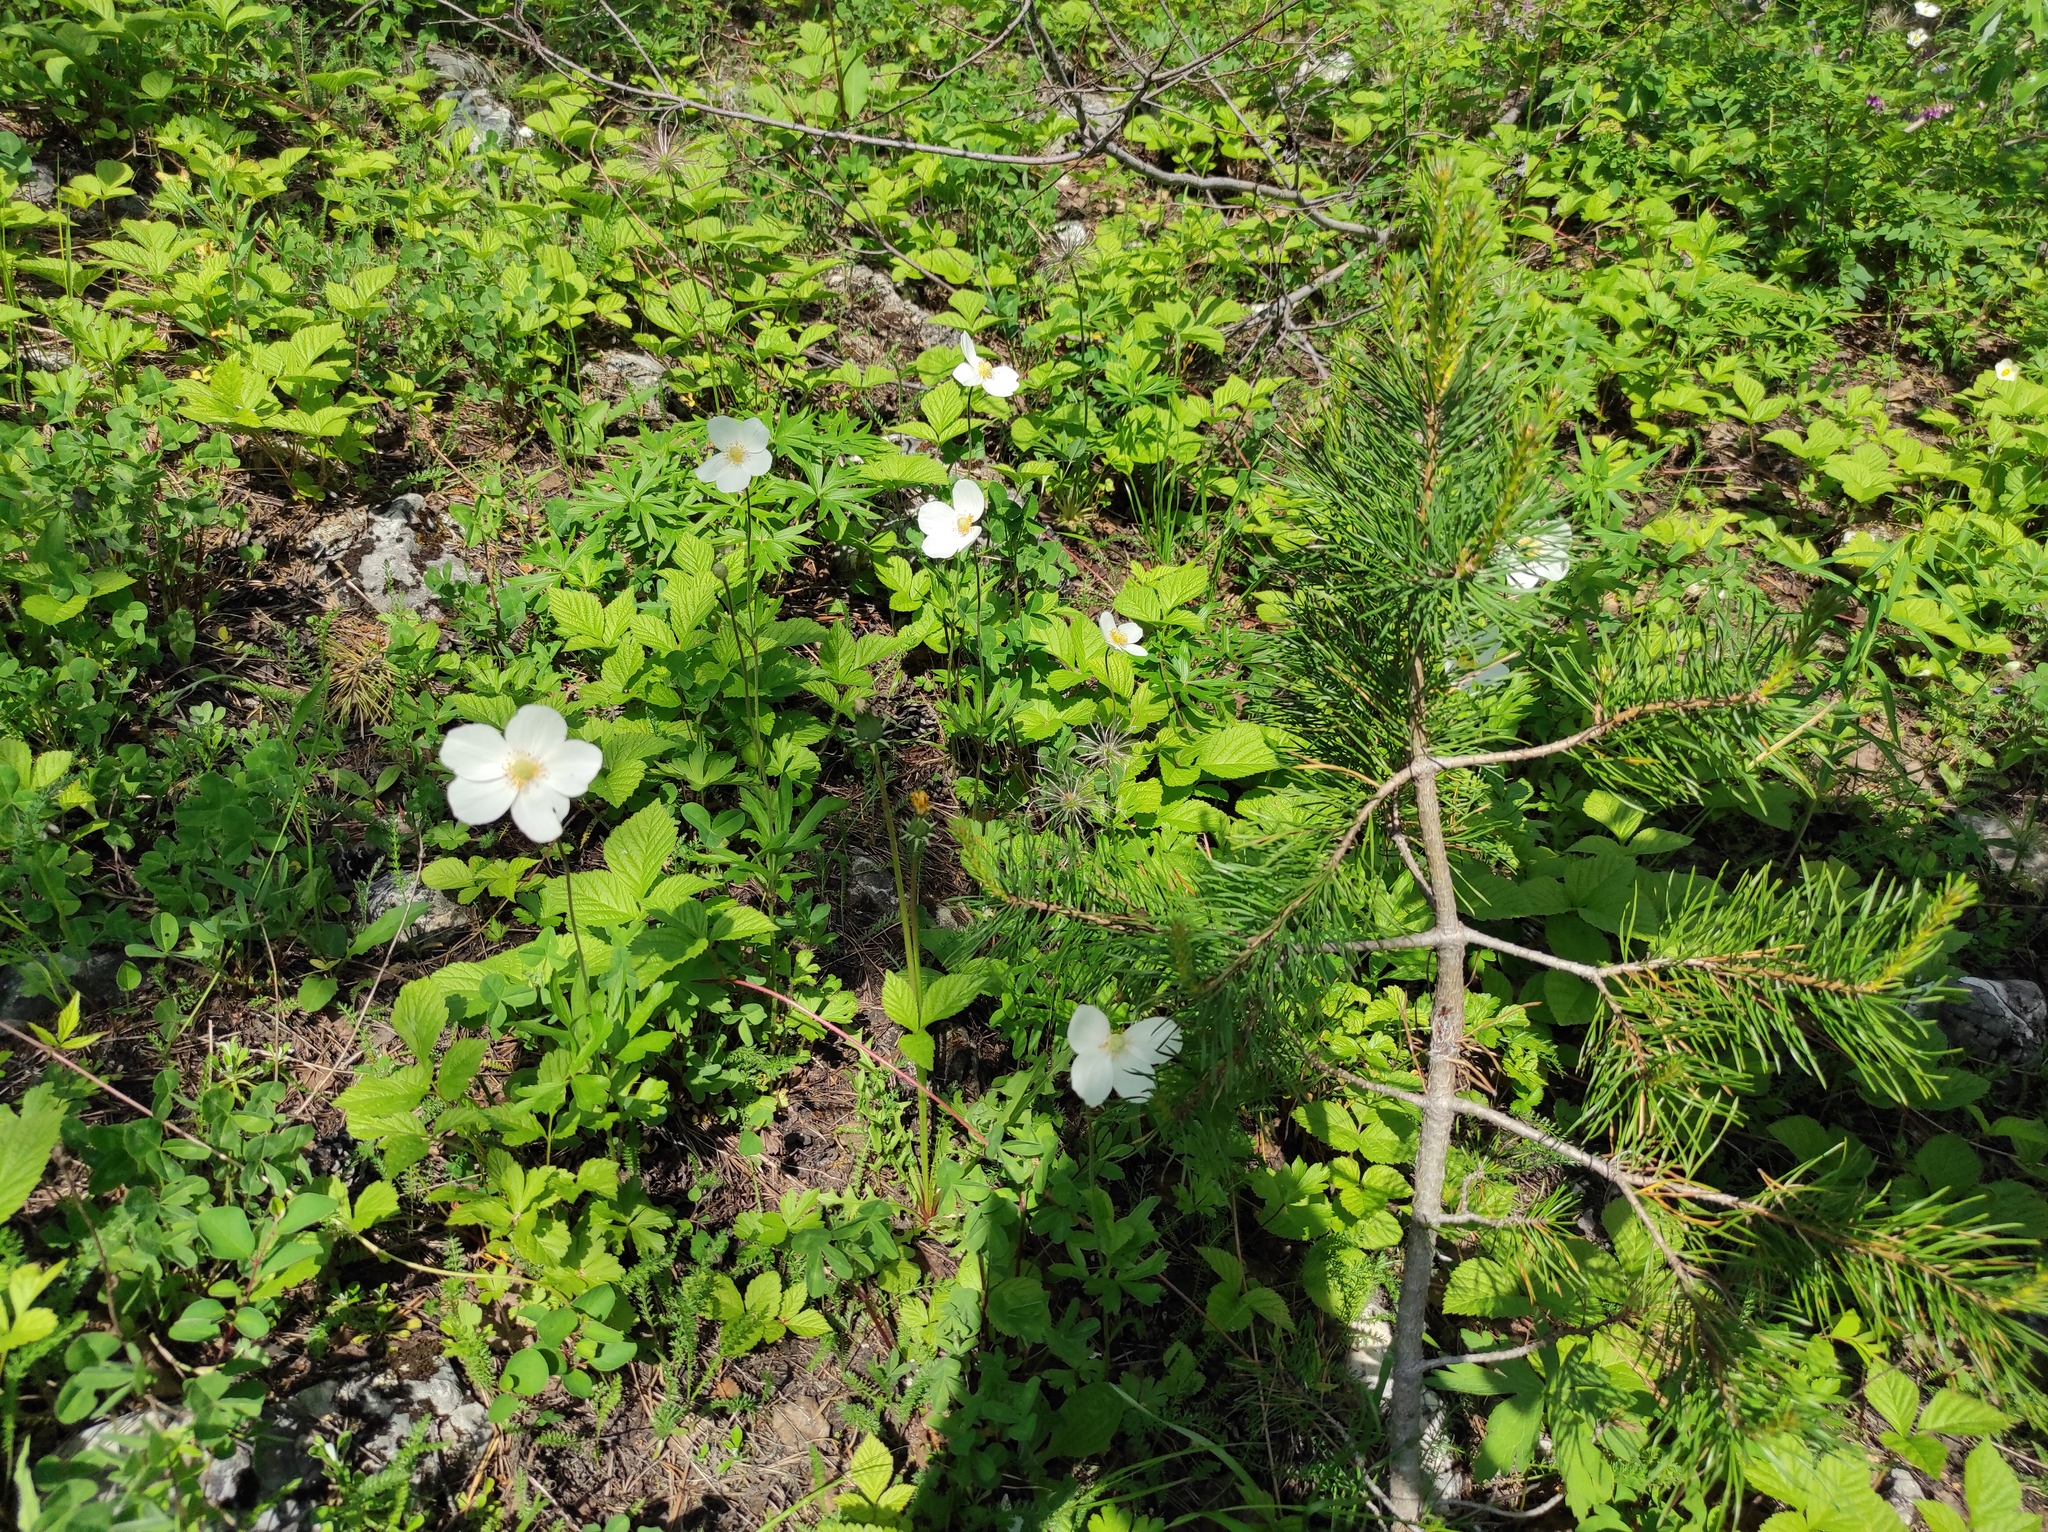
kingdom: Plantae
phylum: Tracheophyta
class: Pinopsida
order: Pinales
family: Pinaceae
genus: Pinus
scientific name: Pinus sylvestris
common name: Scots pine
